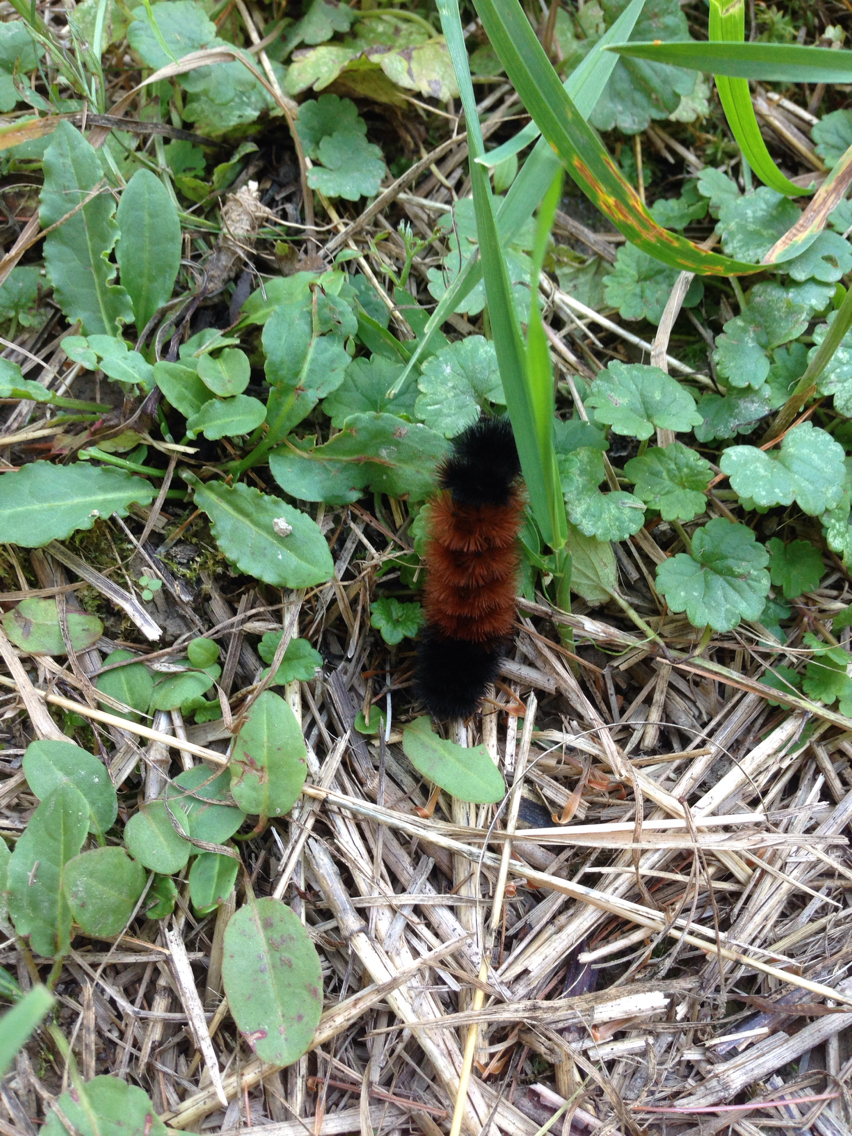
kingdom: Animalia
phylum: Arthropoda
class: Insecta
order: Lepidoptera
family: Erebidae
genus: Pyrrharctia
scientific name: Pyrrharctia isabella
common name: Isabella tiger moth
